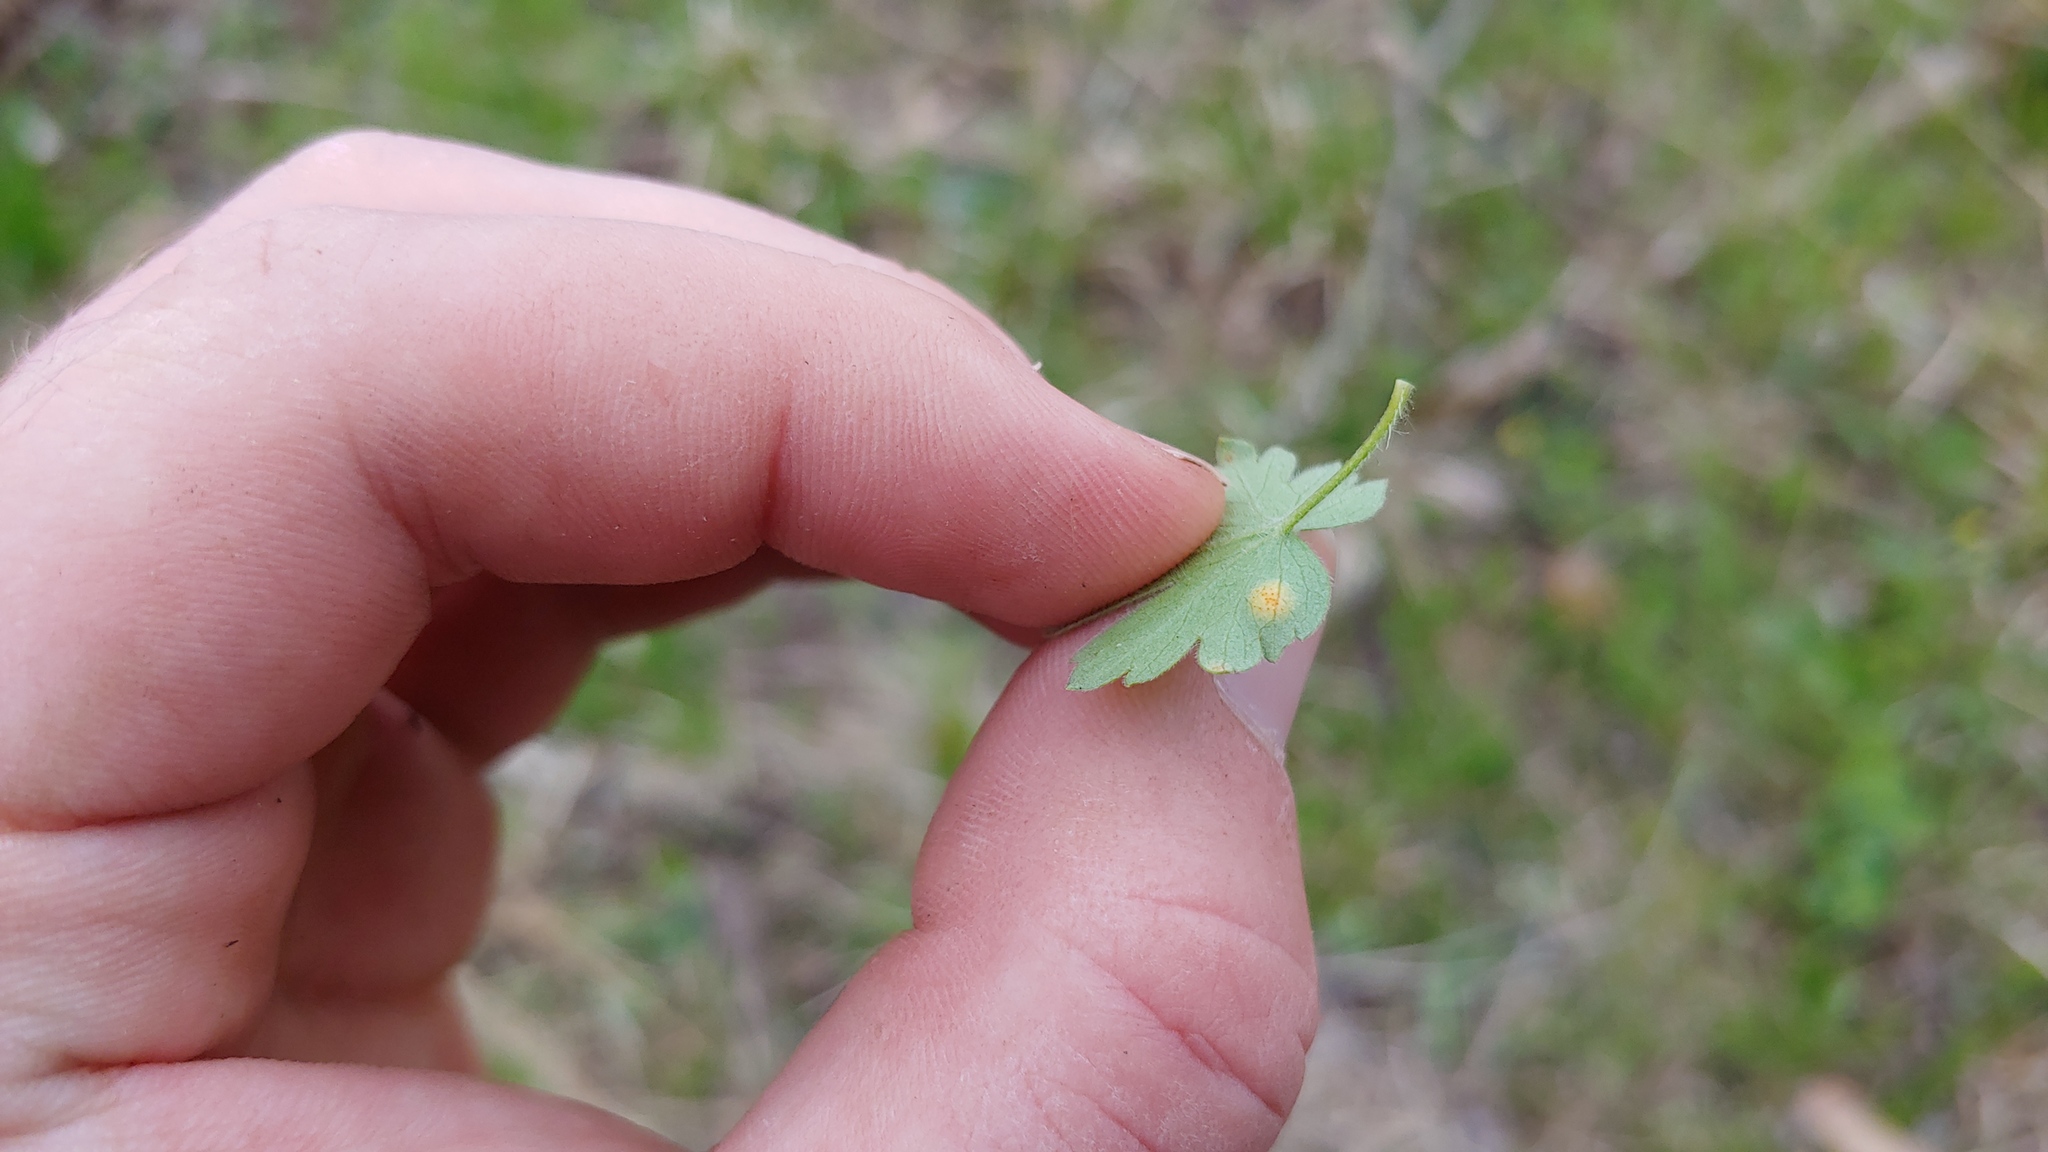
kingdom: Fungi
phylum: Basidiomycota
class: Pucciniomycetes
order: Pucciniales
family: Pucciniaceae
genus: Puccinia
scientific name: Puccinia caricina
